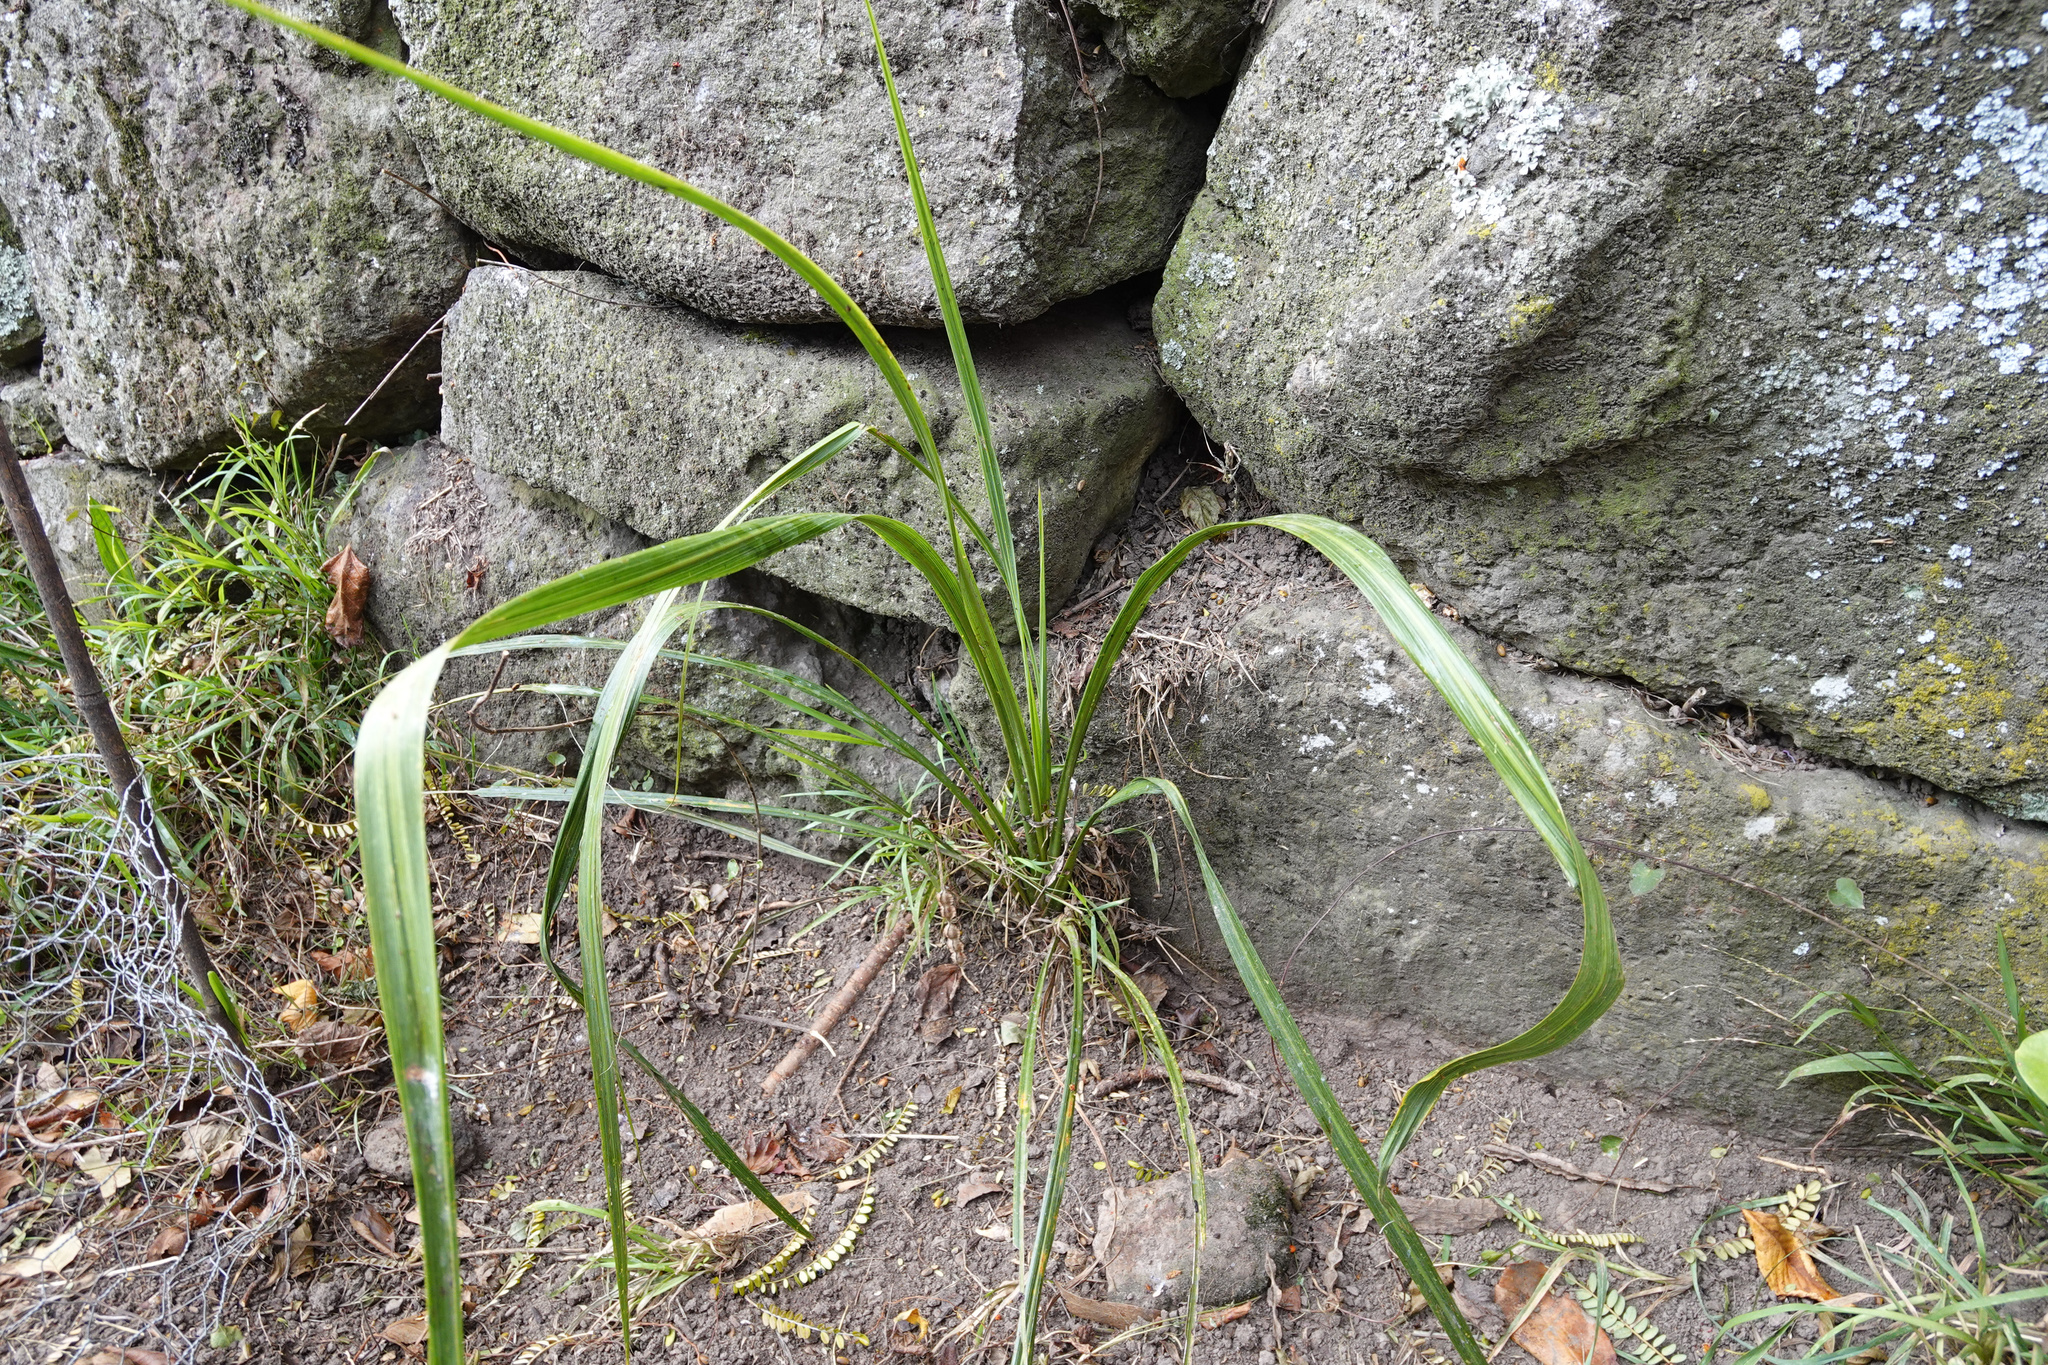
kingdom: Plantae
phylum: Tracheophyta
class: Liliopsida
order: Asparagales
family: Asparagaceae
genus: Cordyline
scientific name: Cordyline australis
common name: Cabbage-palm
